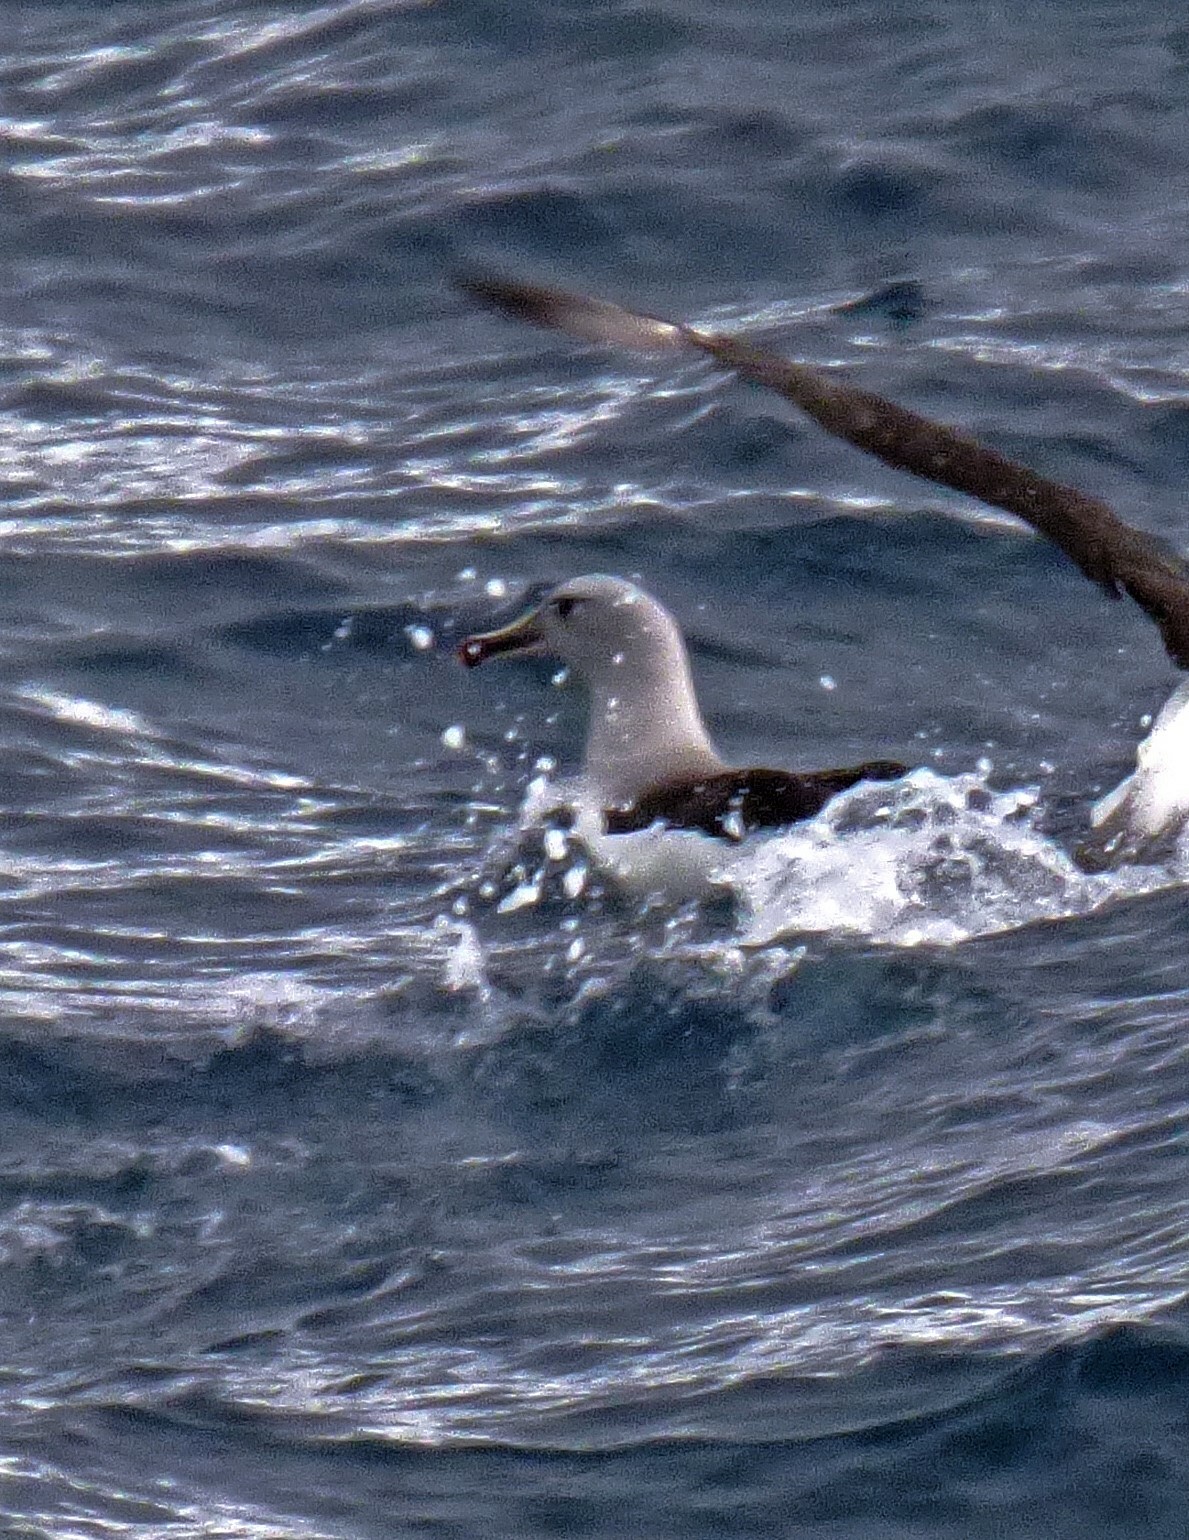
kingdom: Animalia
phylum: Chordata
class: Aves
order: Procellariiformes
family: Diomedeidae
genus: Thalassarche
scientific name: Thalassarche chrysostoma
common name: Grey-headed albatross
